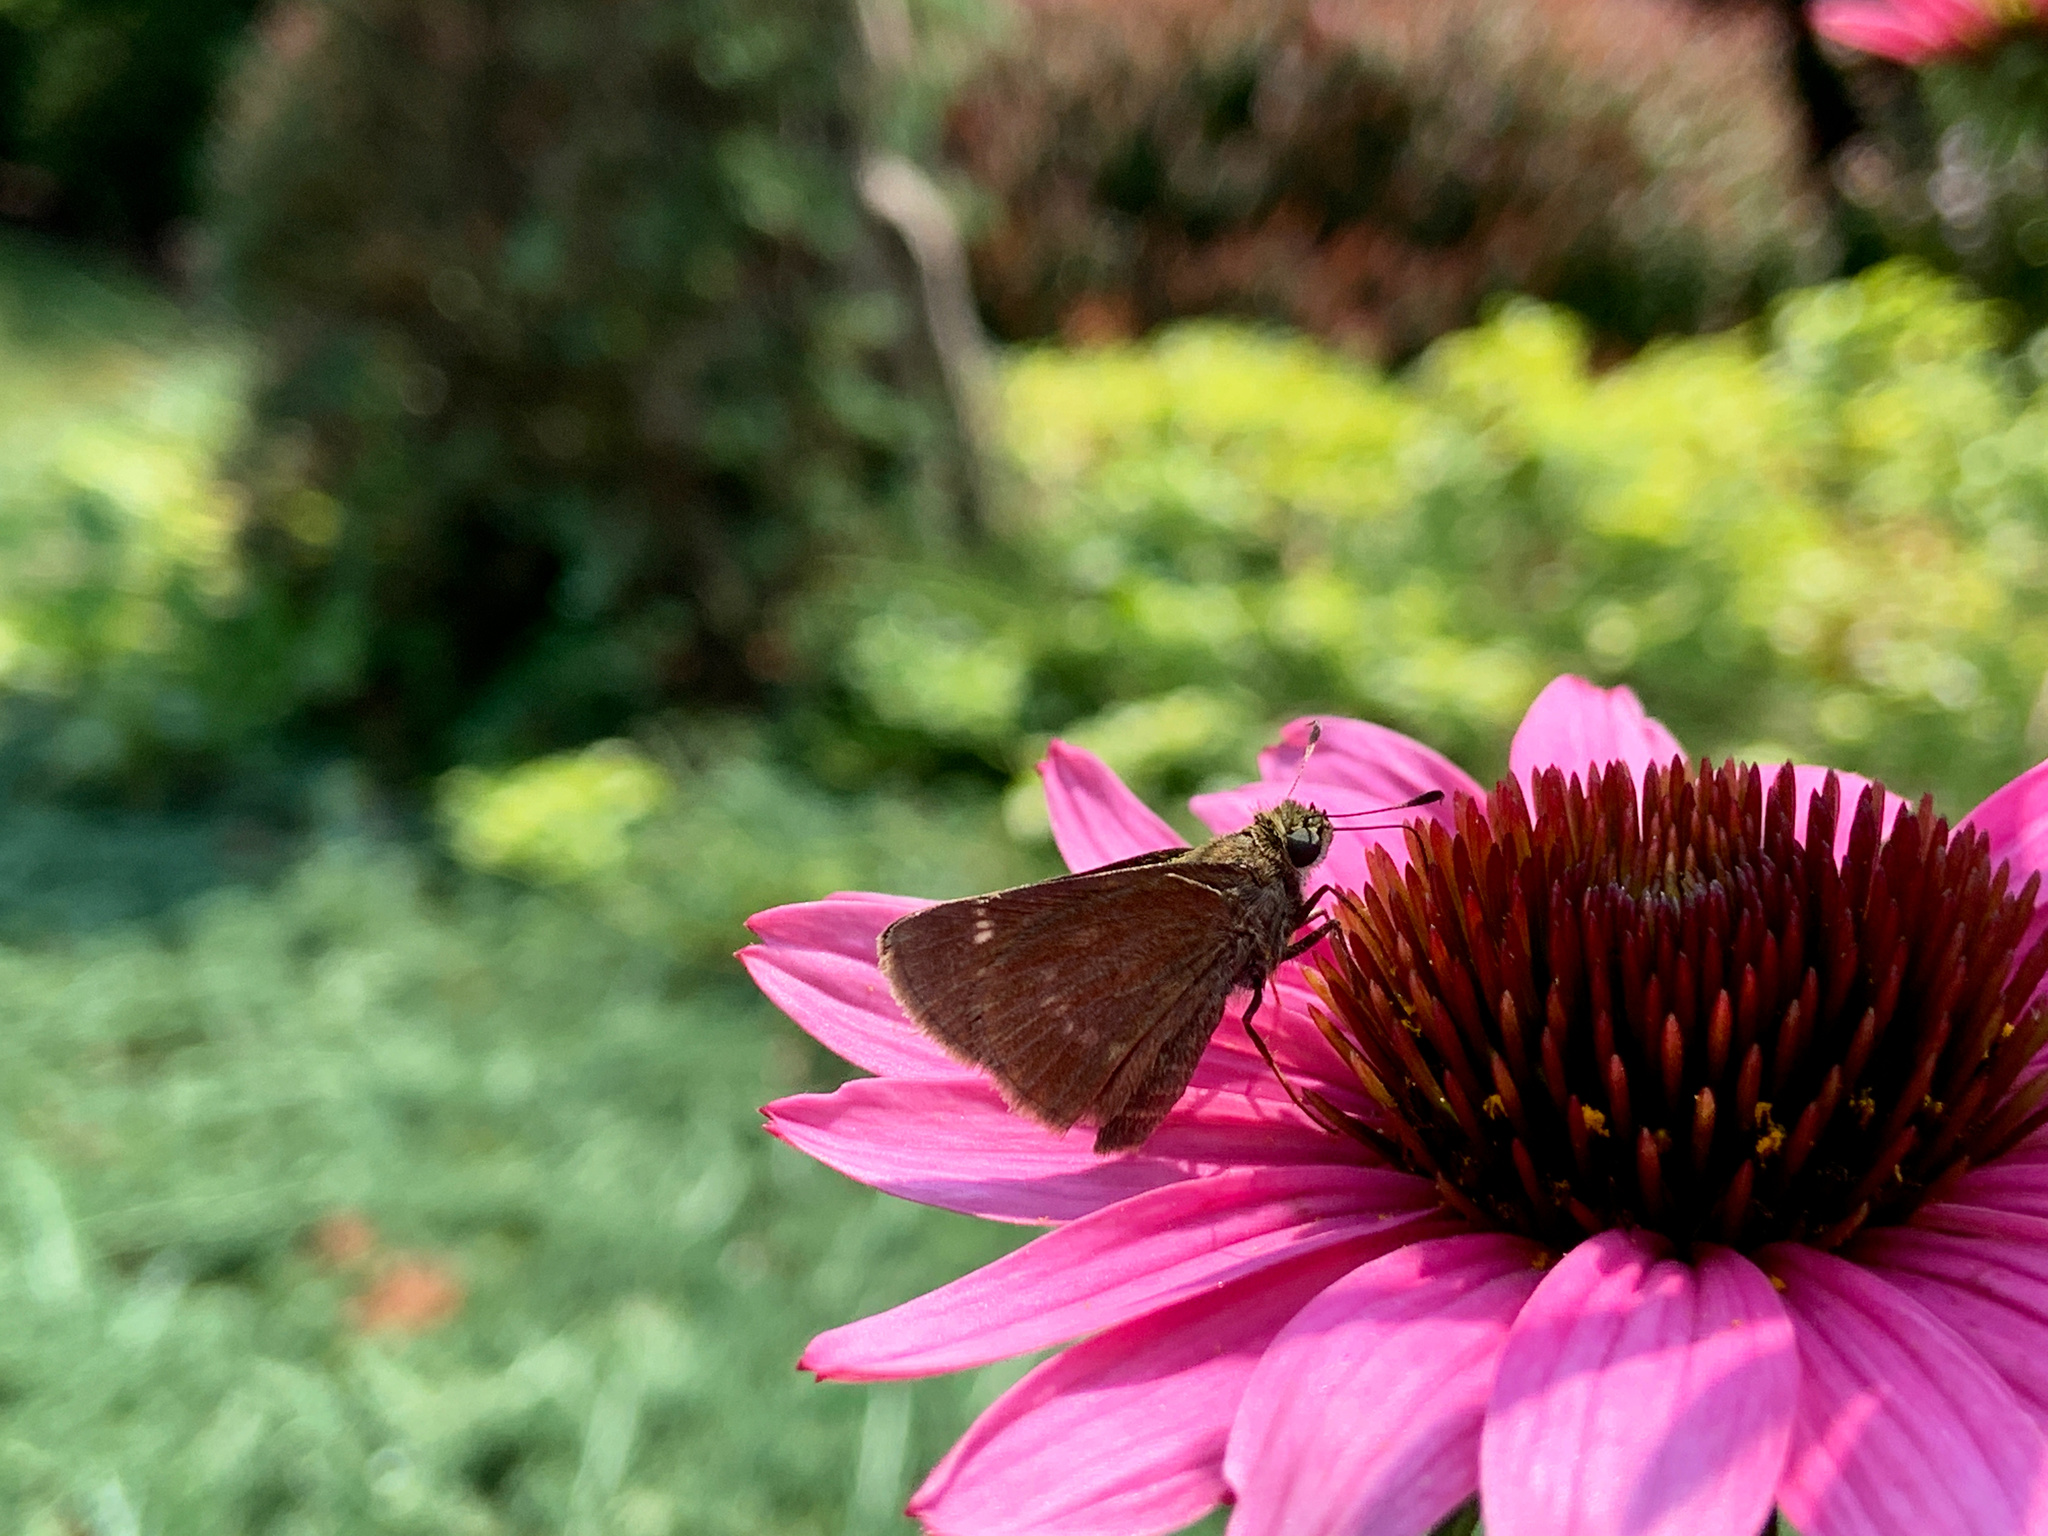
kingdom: Animalia
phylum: Arthropoda
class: Insecta
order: Lepidoptera
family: Hesperiidae
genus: Vernia
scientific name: Vernia verna
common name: Little glassywing
